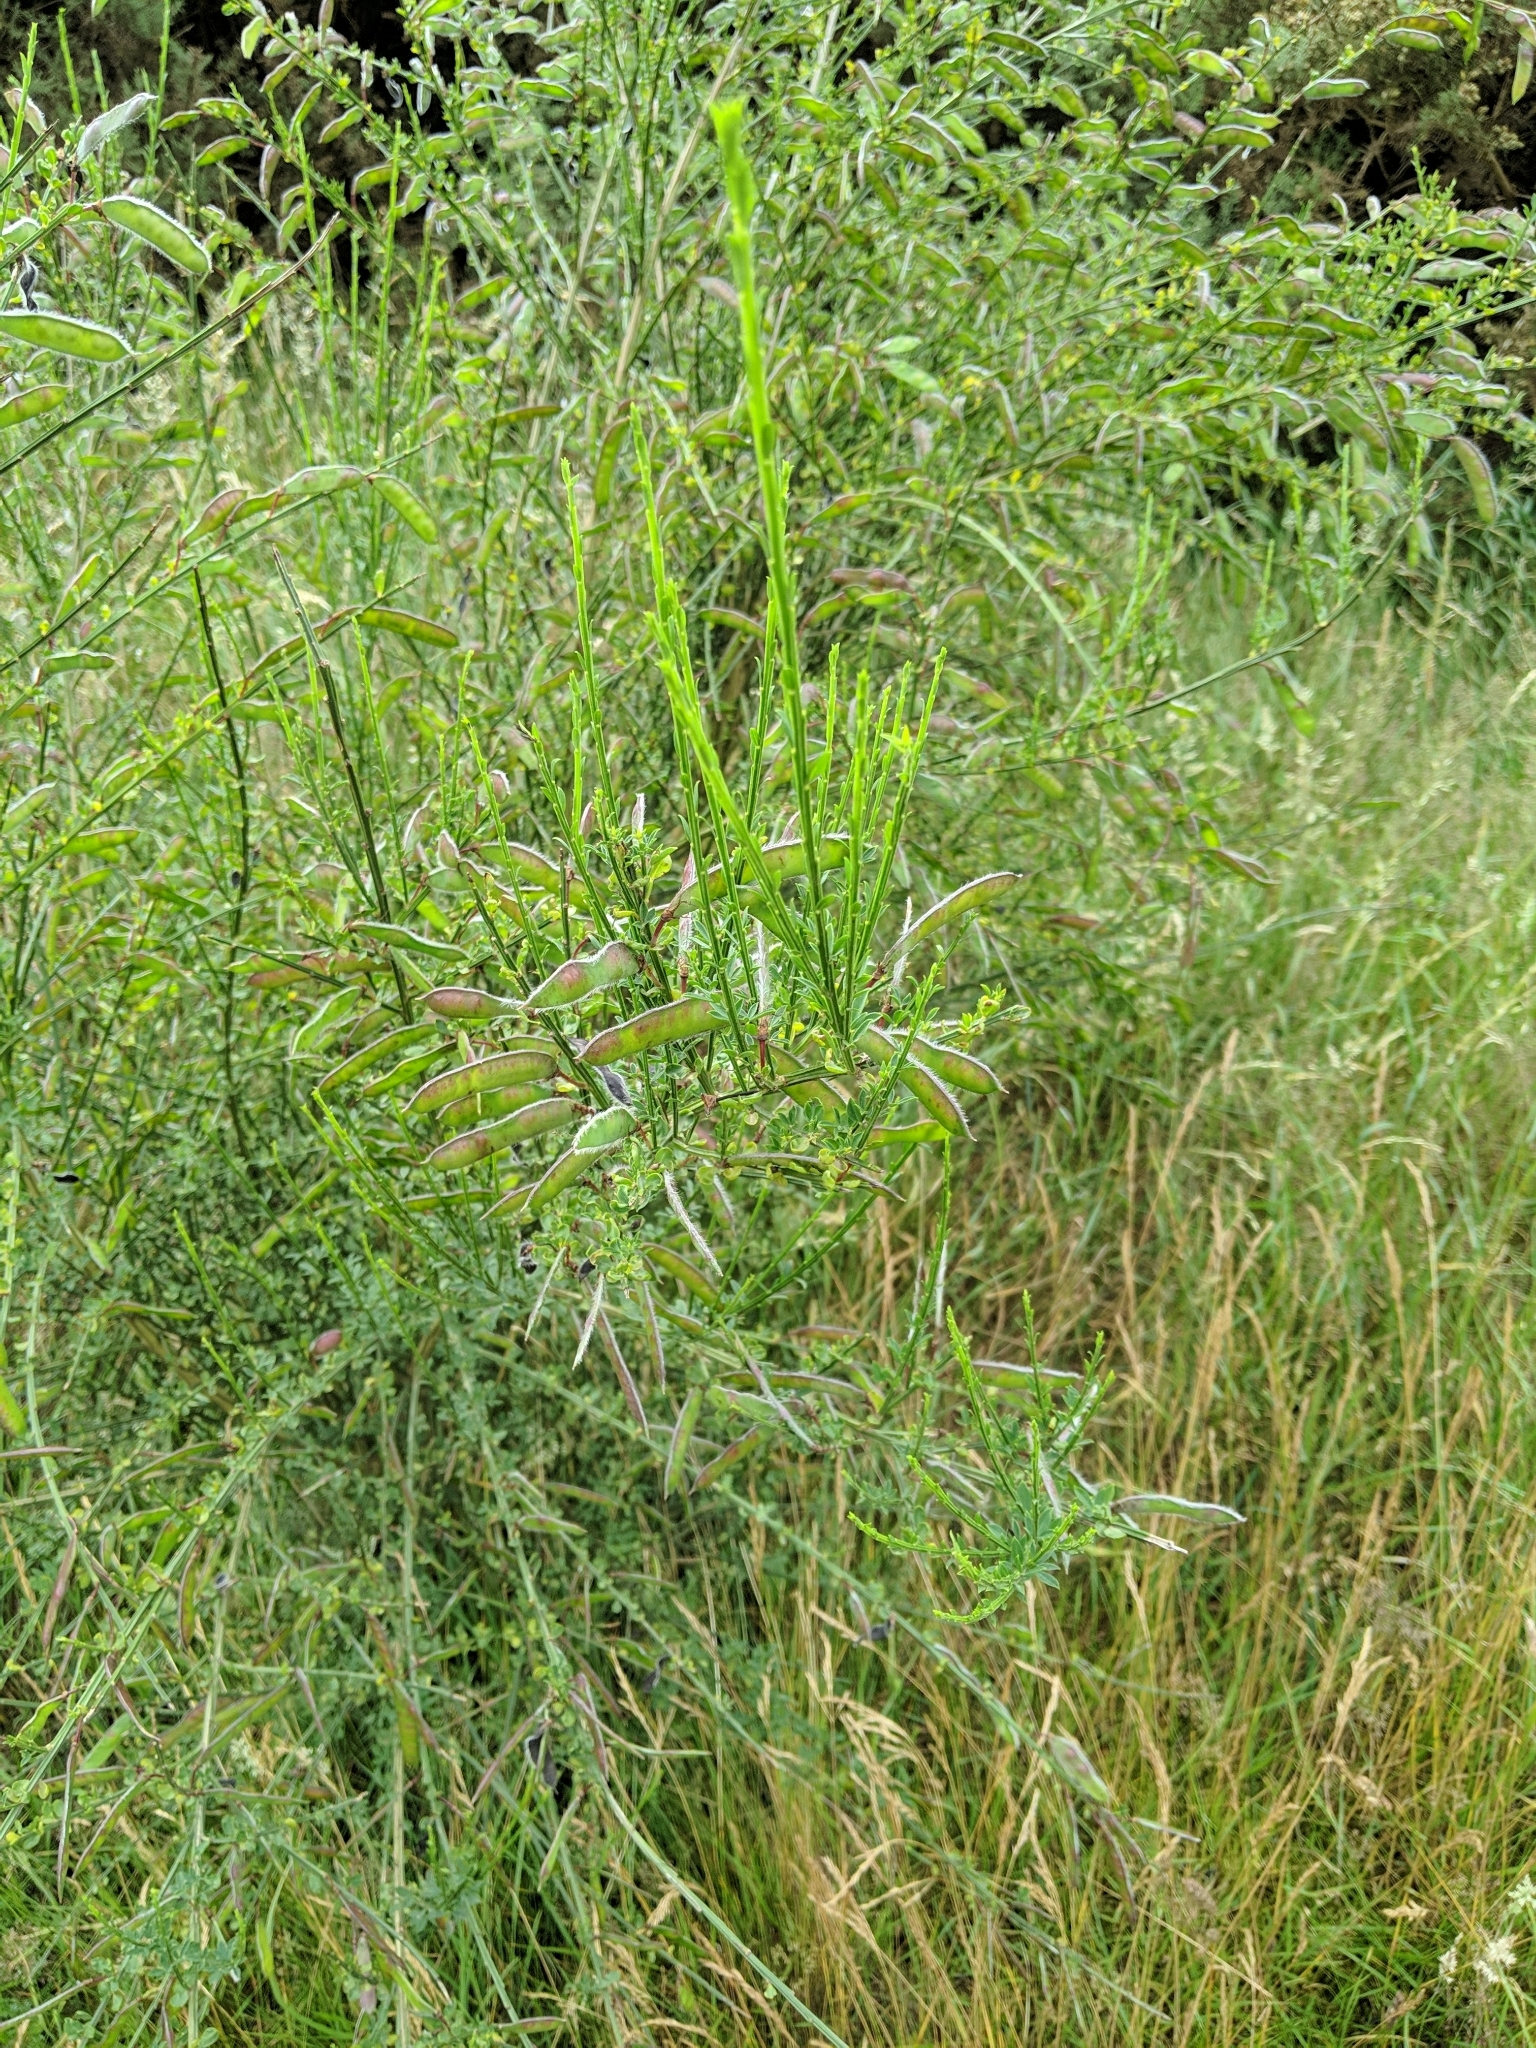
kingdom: Plantae
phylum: Tracheophyta
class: Magnoliopsida
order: Fabales
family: Fabaceae
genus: Cytisus
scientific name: Cytisus scoparius
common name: Scotch broom
